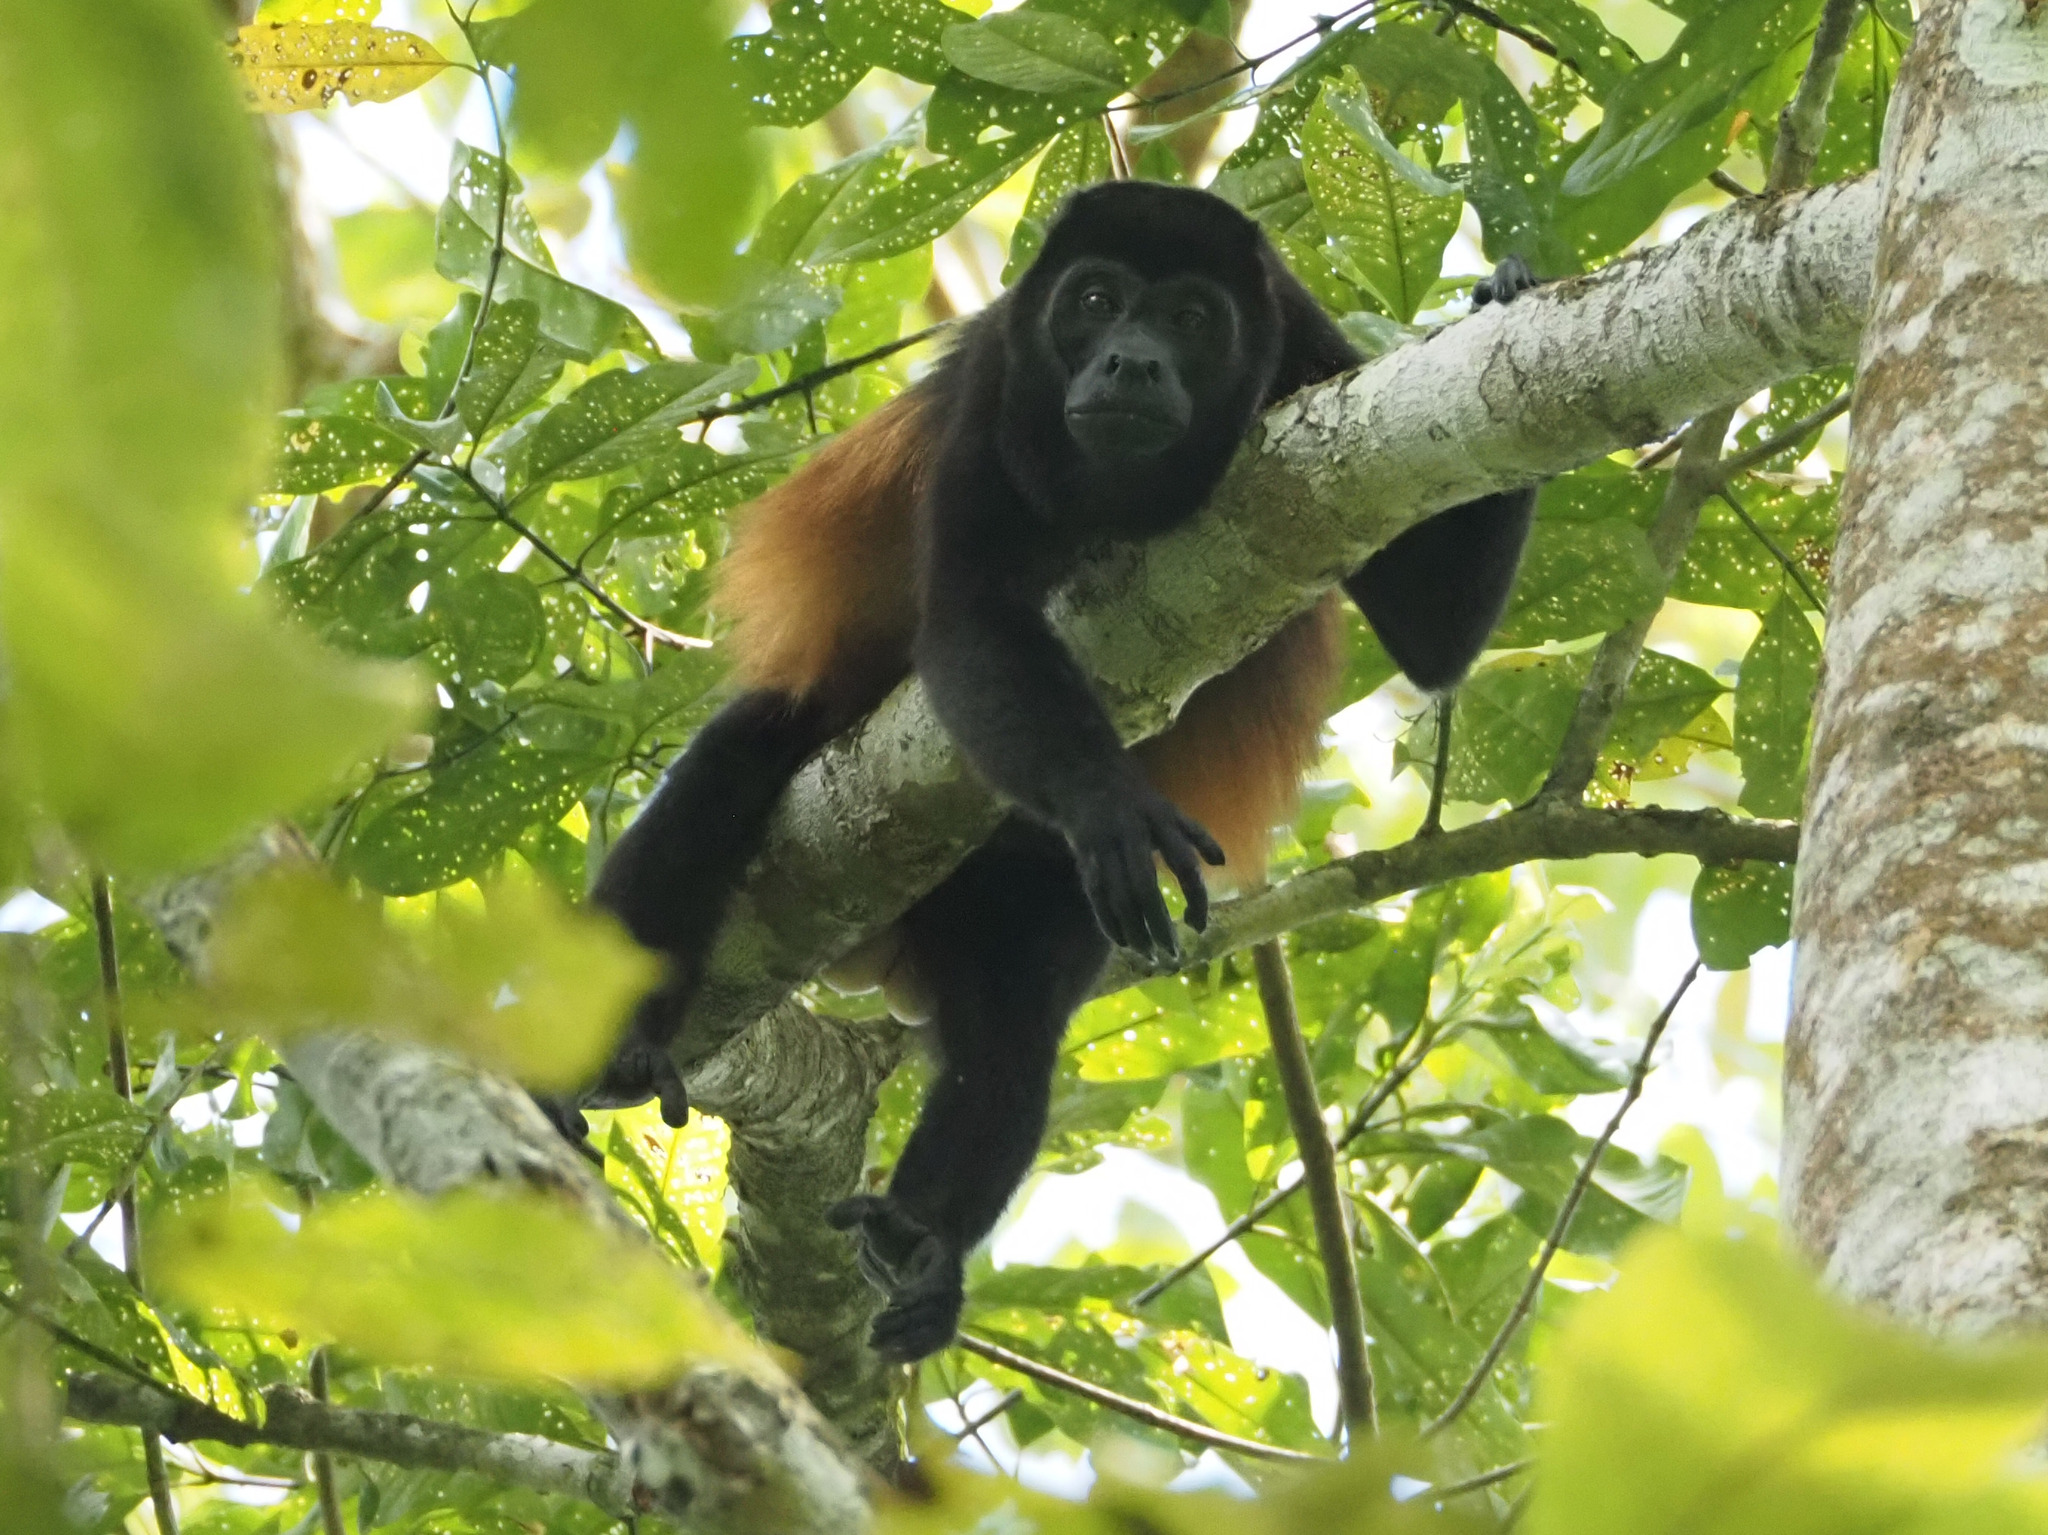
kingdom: Animalia
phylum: Chordata
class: Mammalia
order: Primates
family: Atelidae
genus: Alouatta
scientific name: Alouatta palliata
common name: Mantled howler
